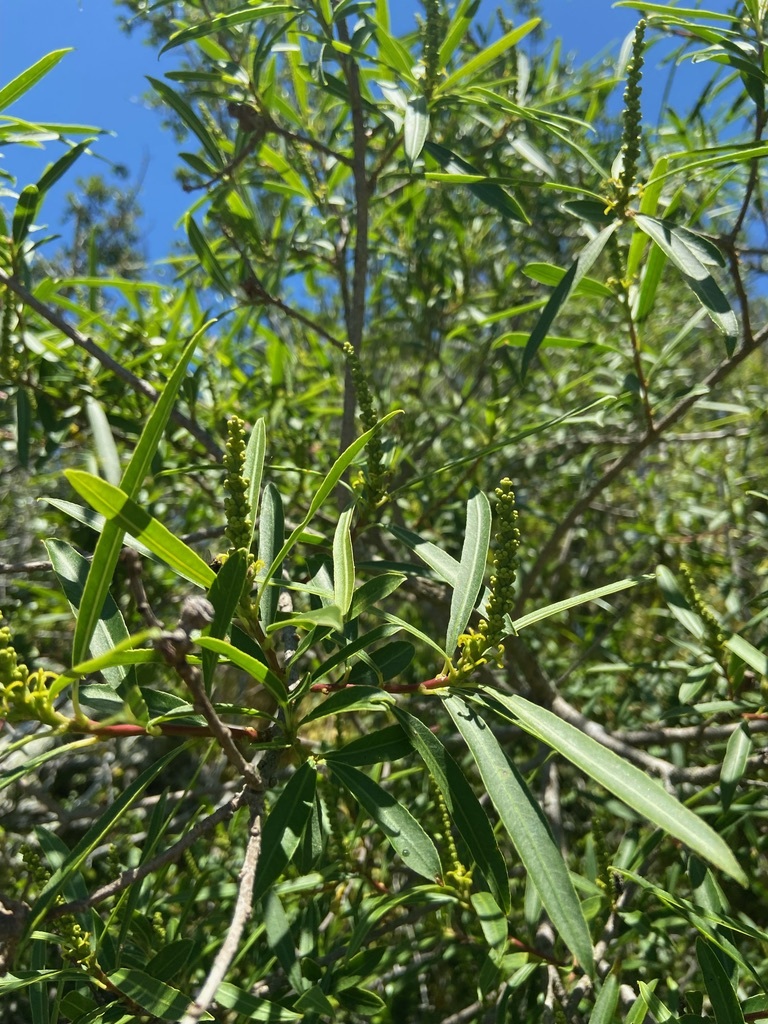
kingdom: Plantae
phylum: Tracheophyta
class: Magnoliopsida
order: Malpighiales
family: Euphorbiaceae
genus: Sapium
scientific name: Sapium haematospermum
